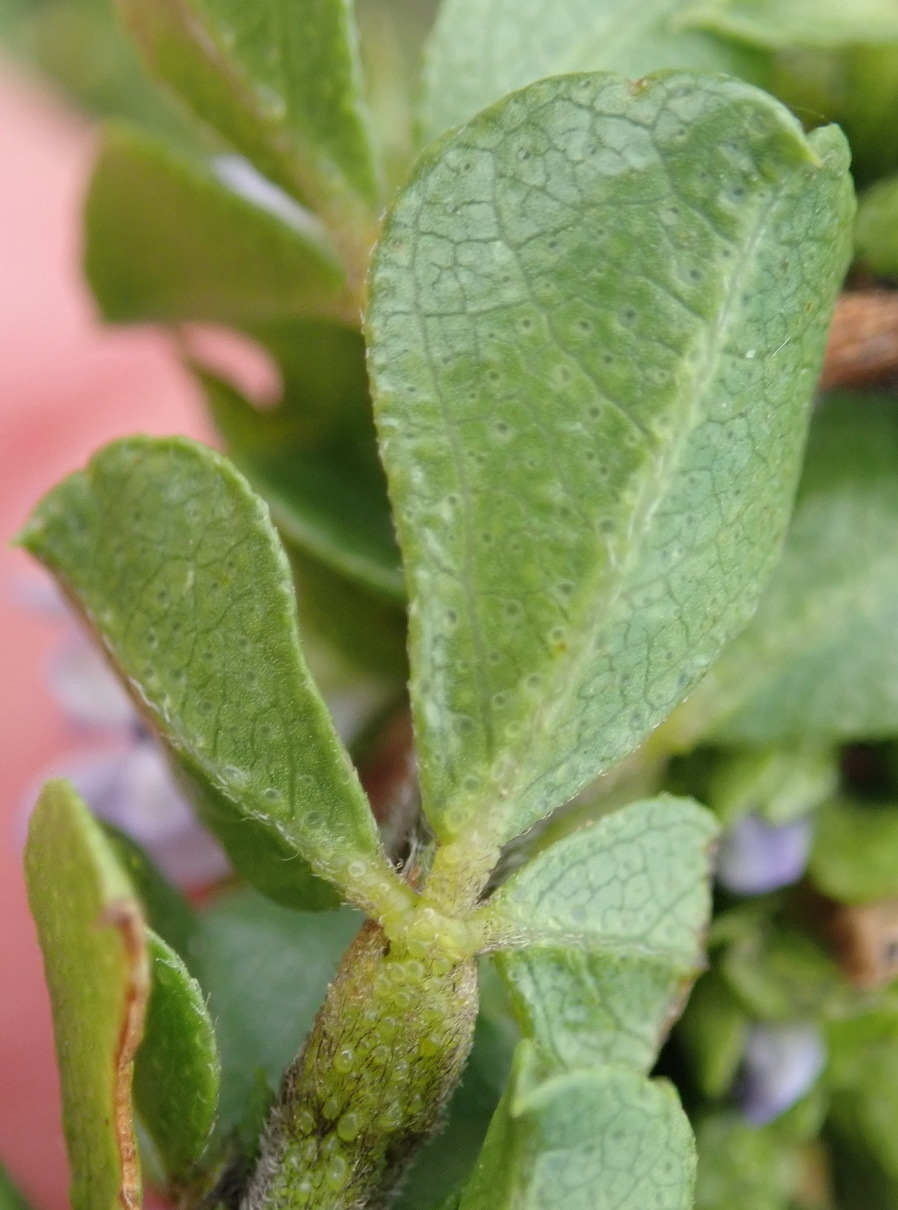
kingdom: Plantae
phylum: Tracheophyta
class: Magnoliopsida
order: Fabales
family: Fabaceae
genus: Psoralea
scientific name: Psoralea acuminata
